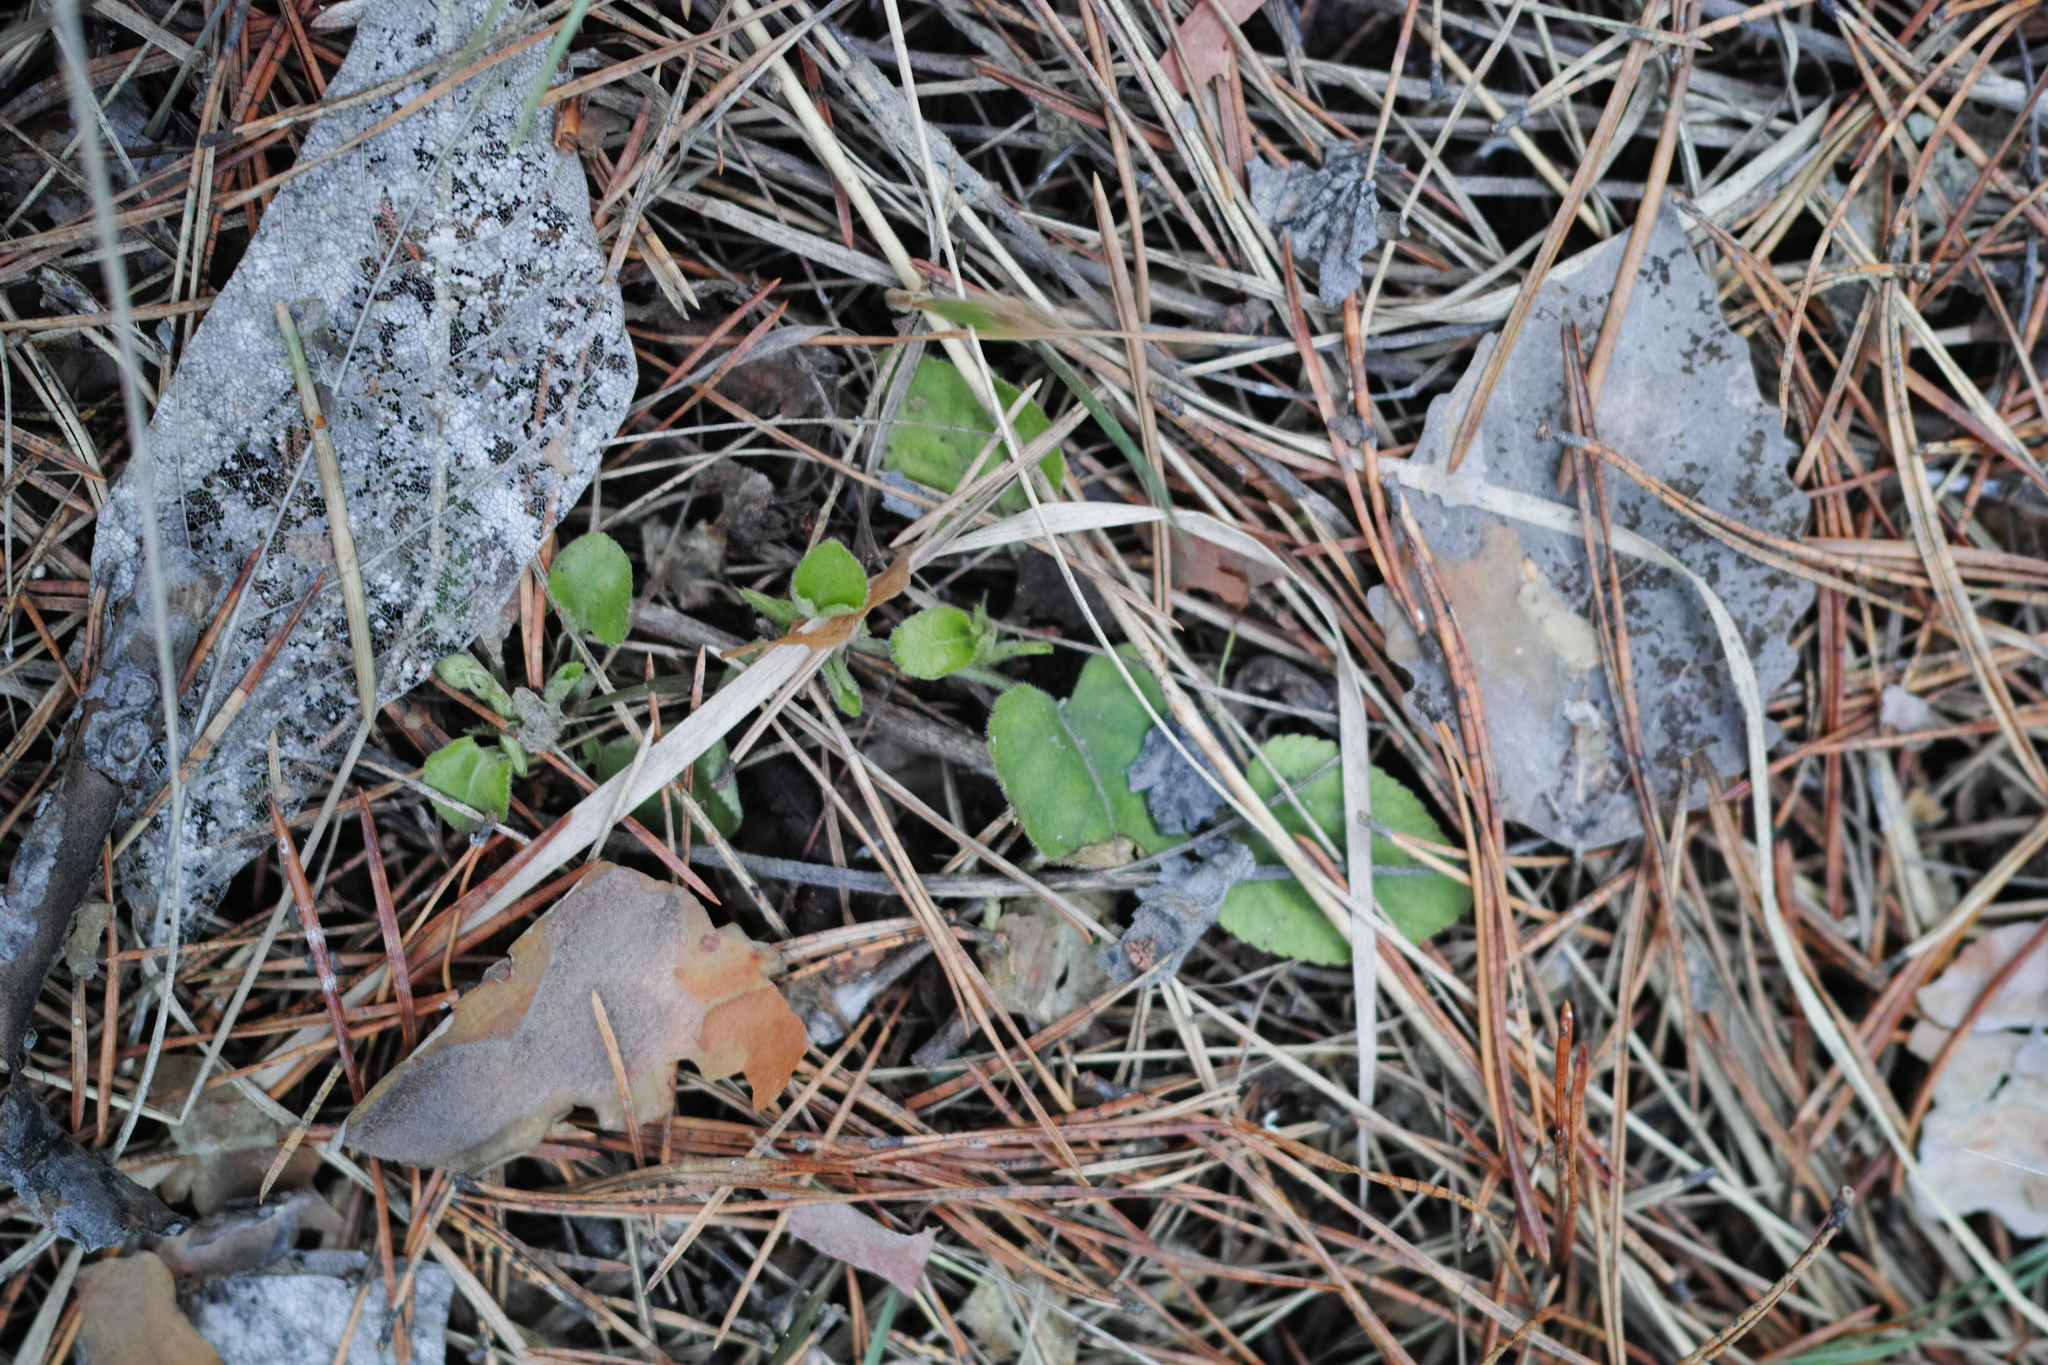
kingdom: Plantae
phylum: Tracheophyta
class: Magnoliopsida
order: Malpighiales
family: Violaceae
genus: Viola
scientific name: Viola rupestris
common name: Teesdale violet
